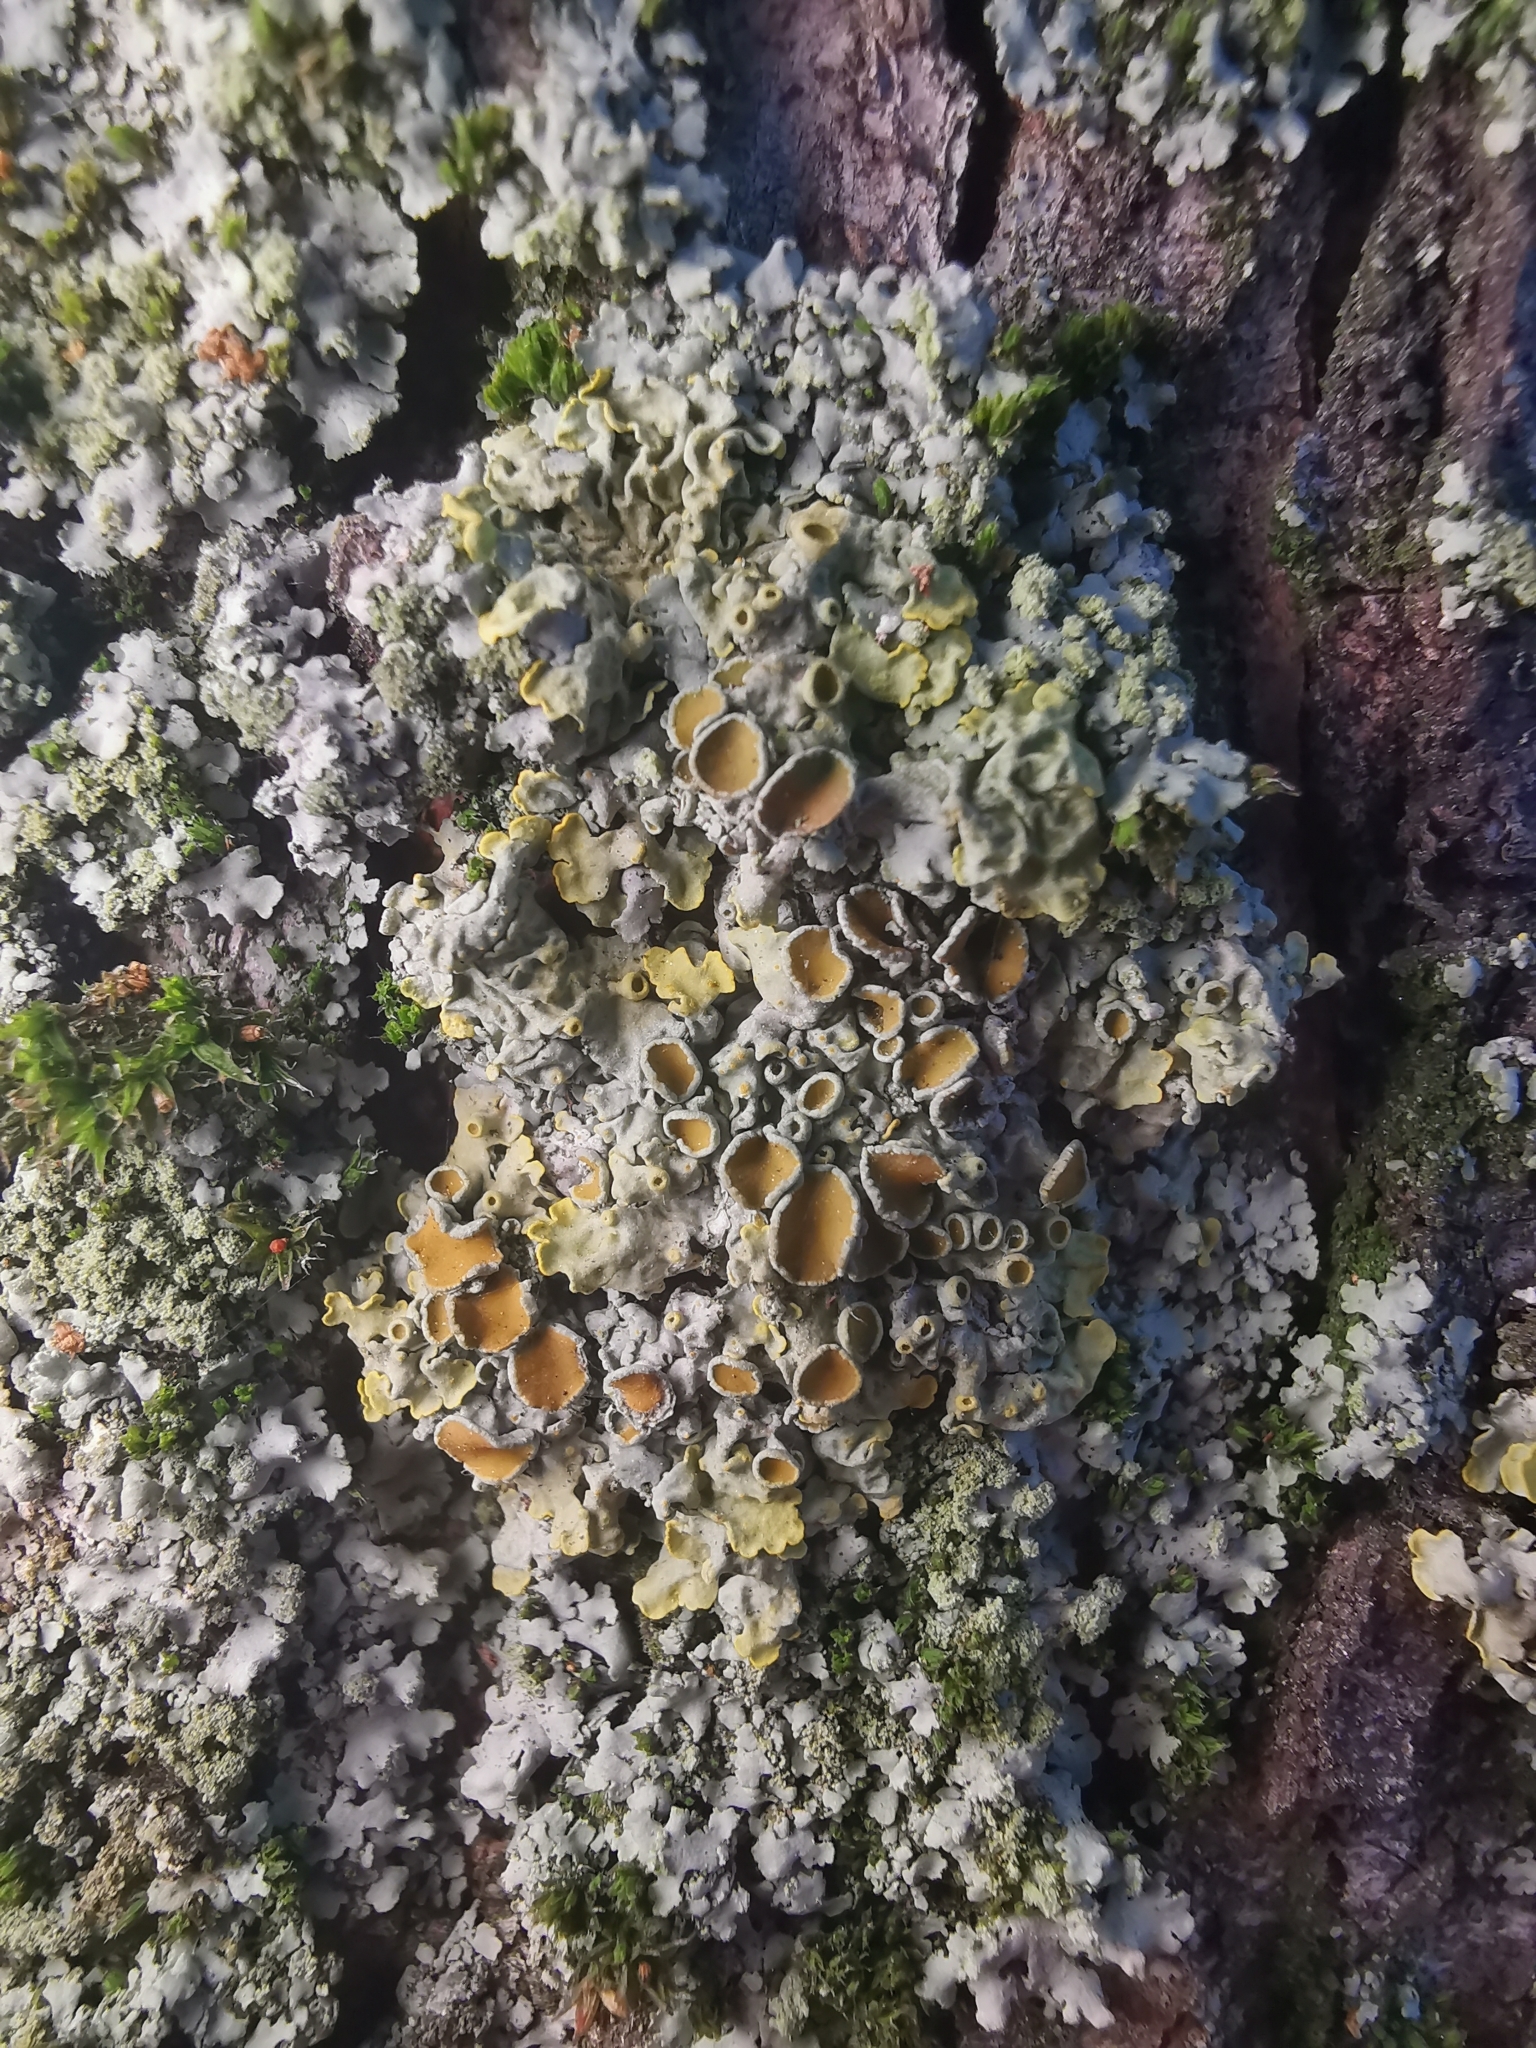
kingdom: Fungi
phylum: Ascomycota
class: Lecanoromycetes
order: Teloschistales
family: Teloschistaceae
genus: Xanthoria
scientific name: Xanthoria parietina
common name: Common orange lichen
